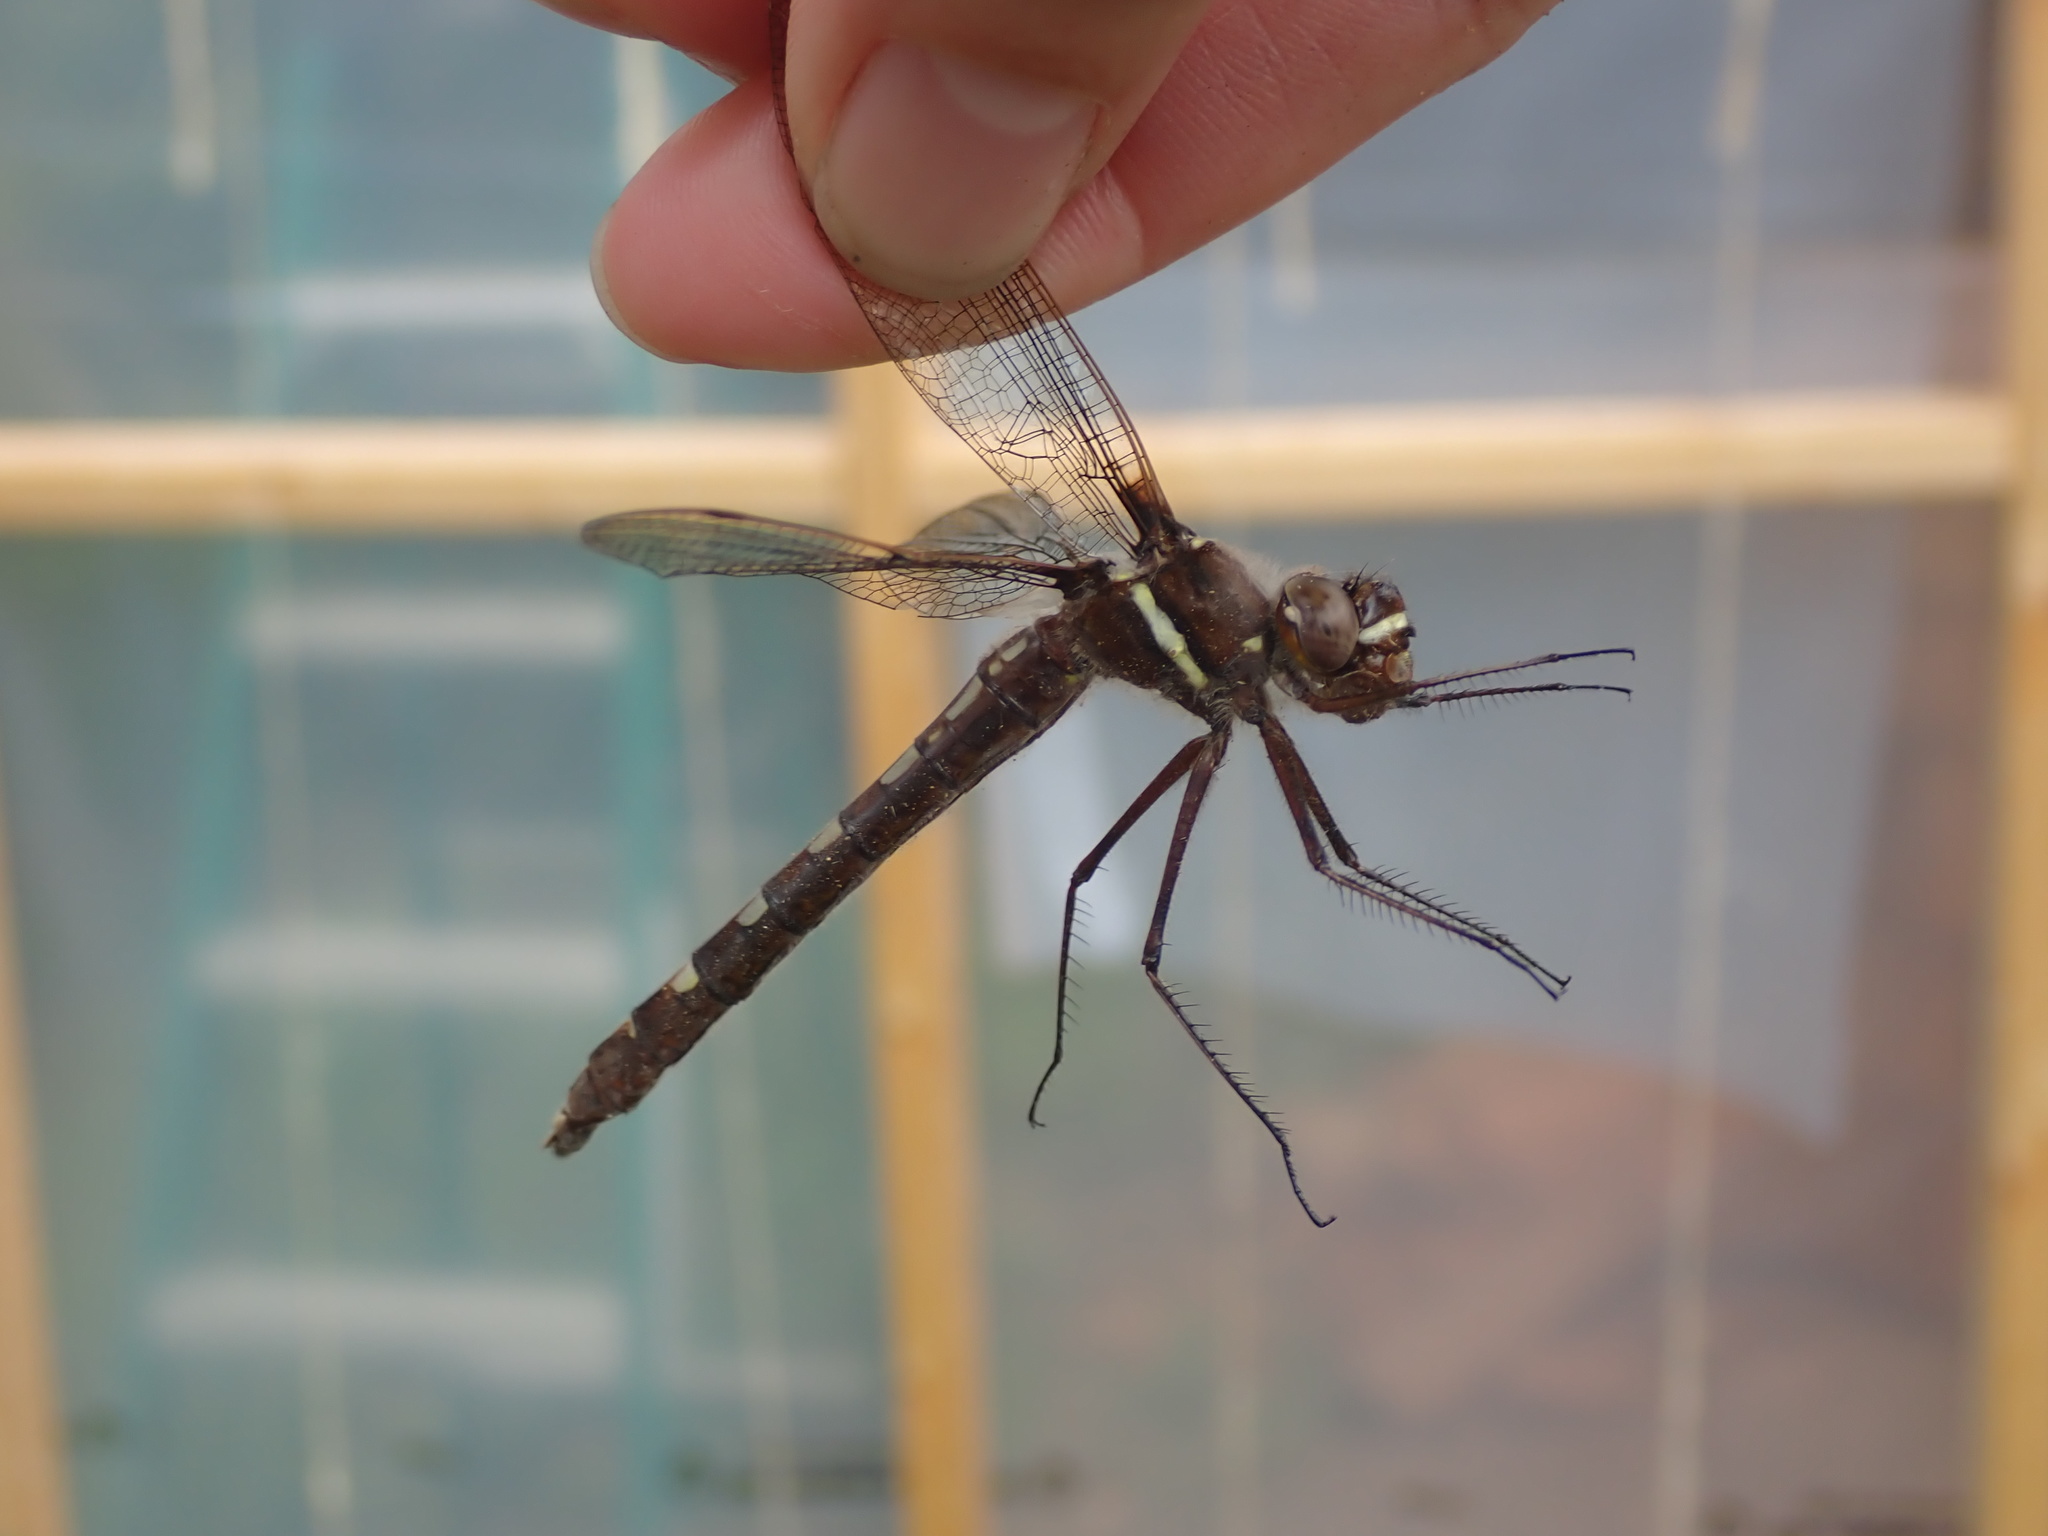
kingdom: Animalia
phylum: Arthropoda
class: Insecta
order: Odonata
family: Macromiidae
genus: Didymops
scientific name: Didymops transversa
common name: Stream cruiser
